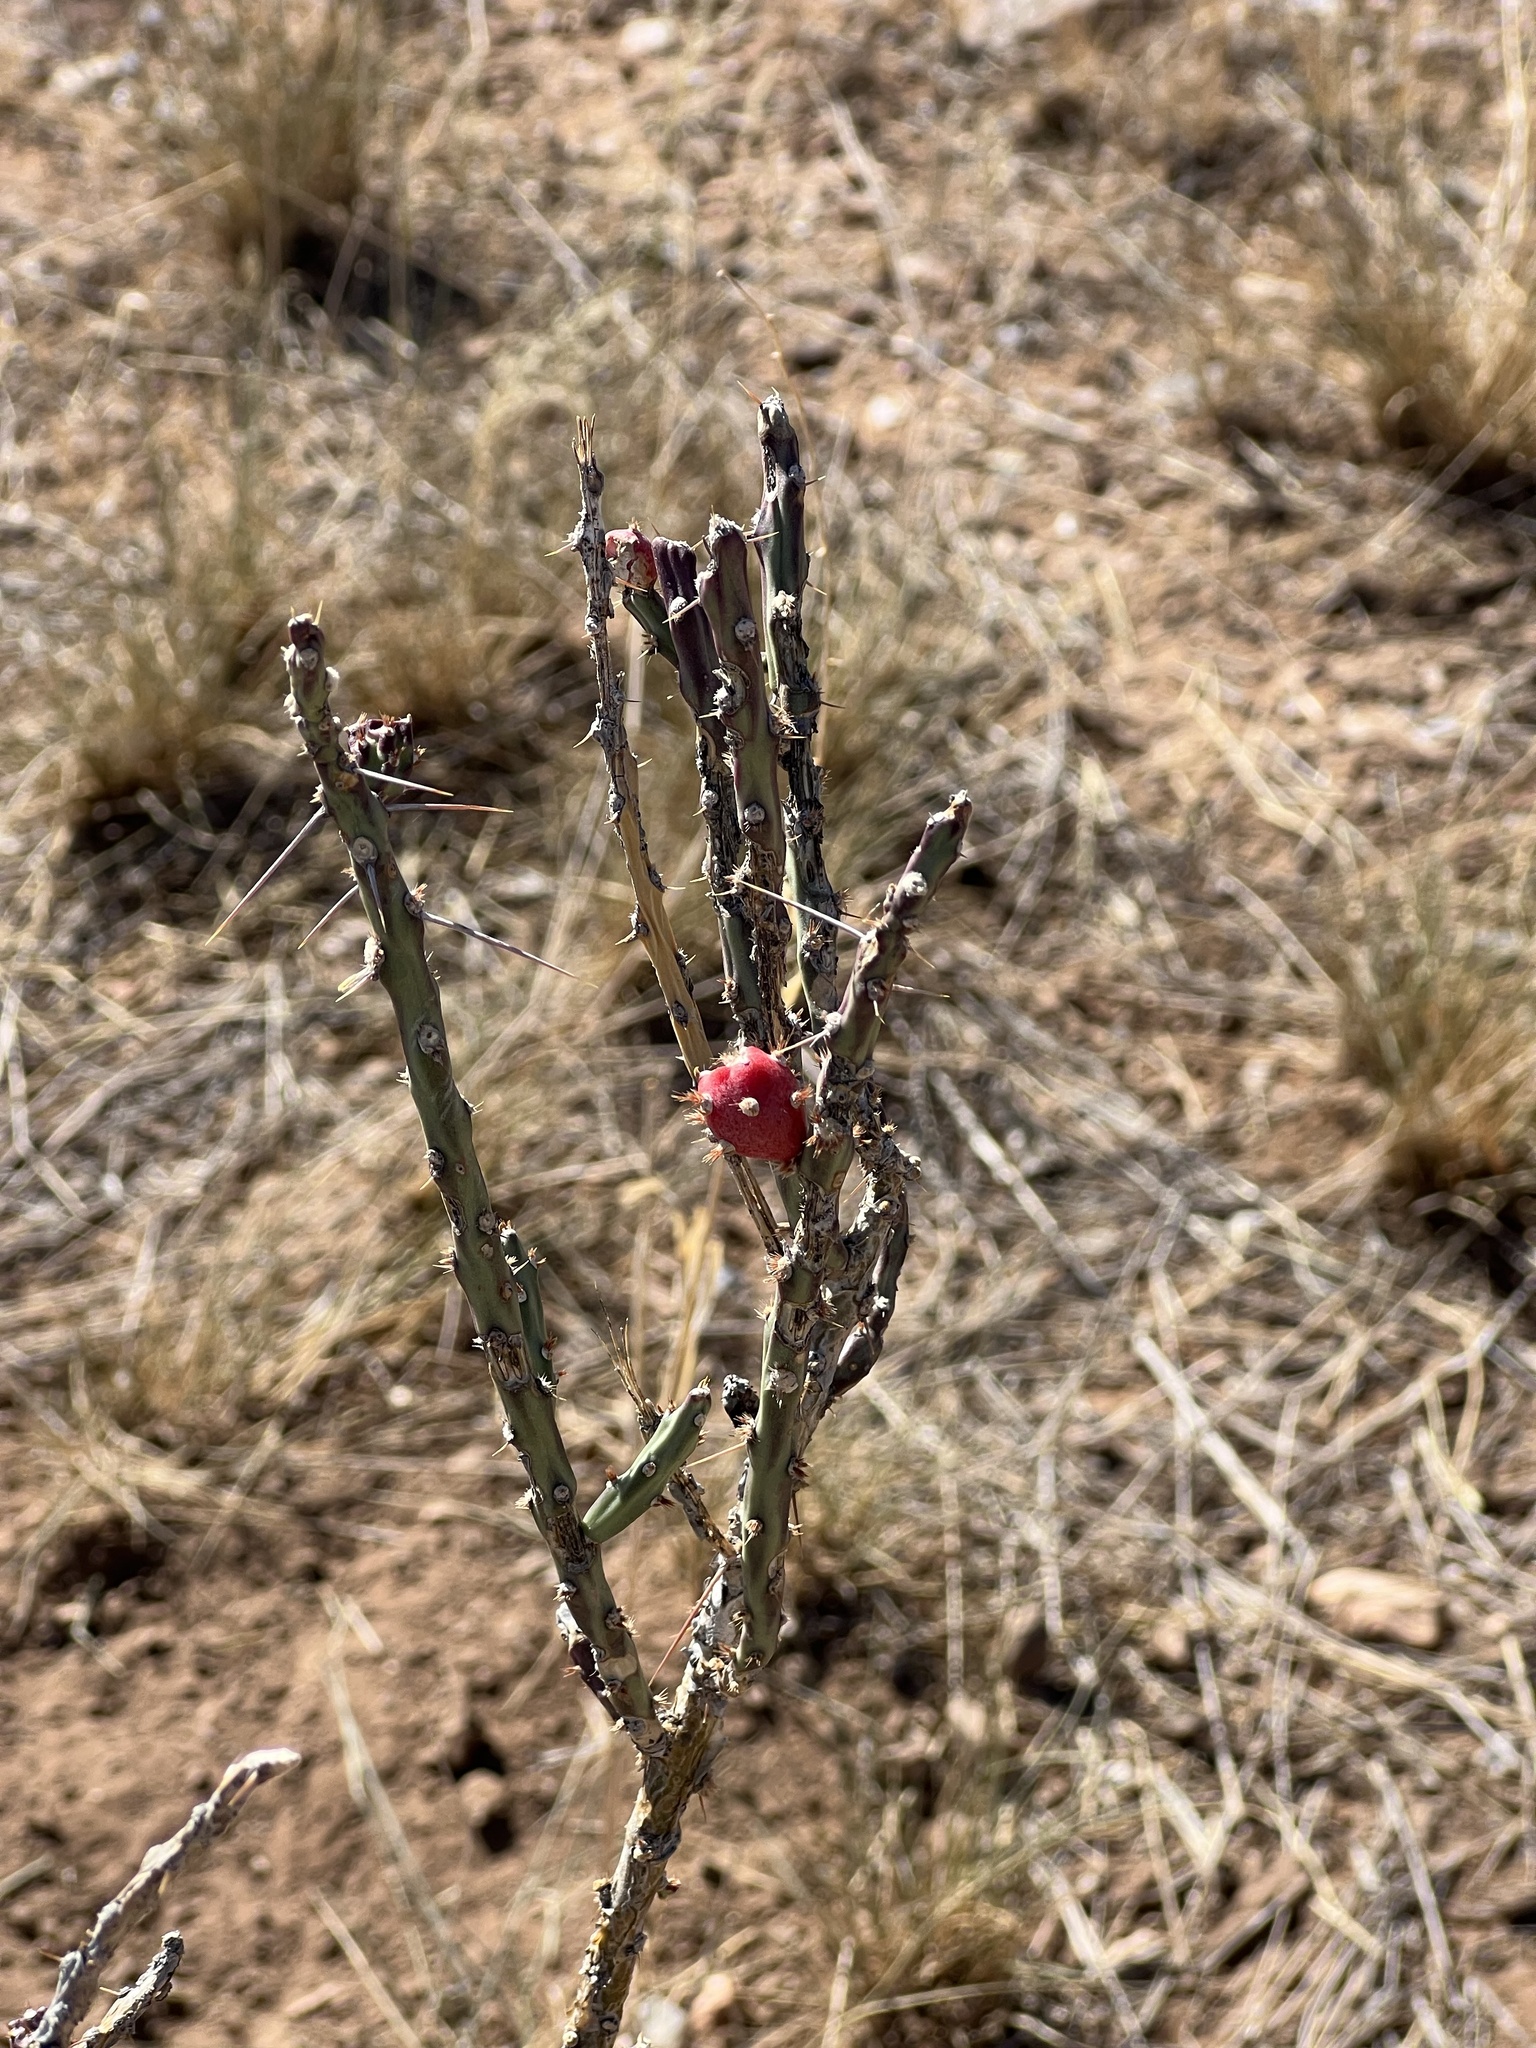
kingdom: Plantae
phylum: Tracheophyta
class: Magnoliopsida
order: Caryophyllales
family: Cactaceae
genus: Cylindropuntia
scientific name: Cylindropuntia leptocaulis
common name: Christmas cactus
